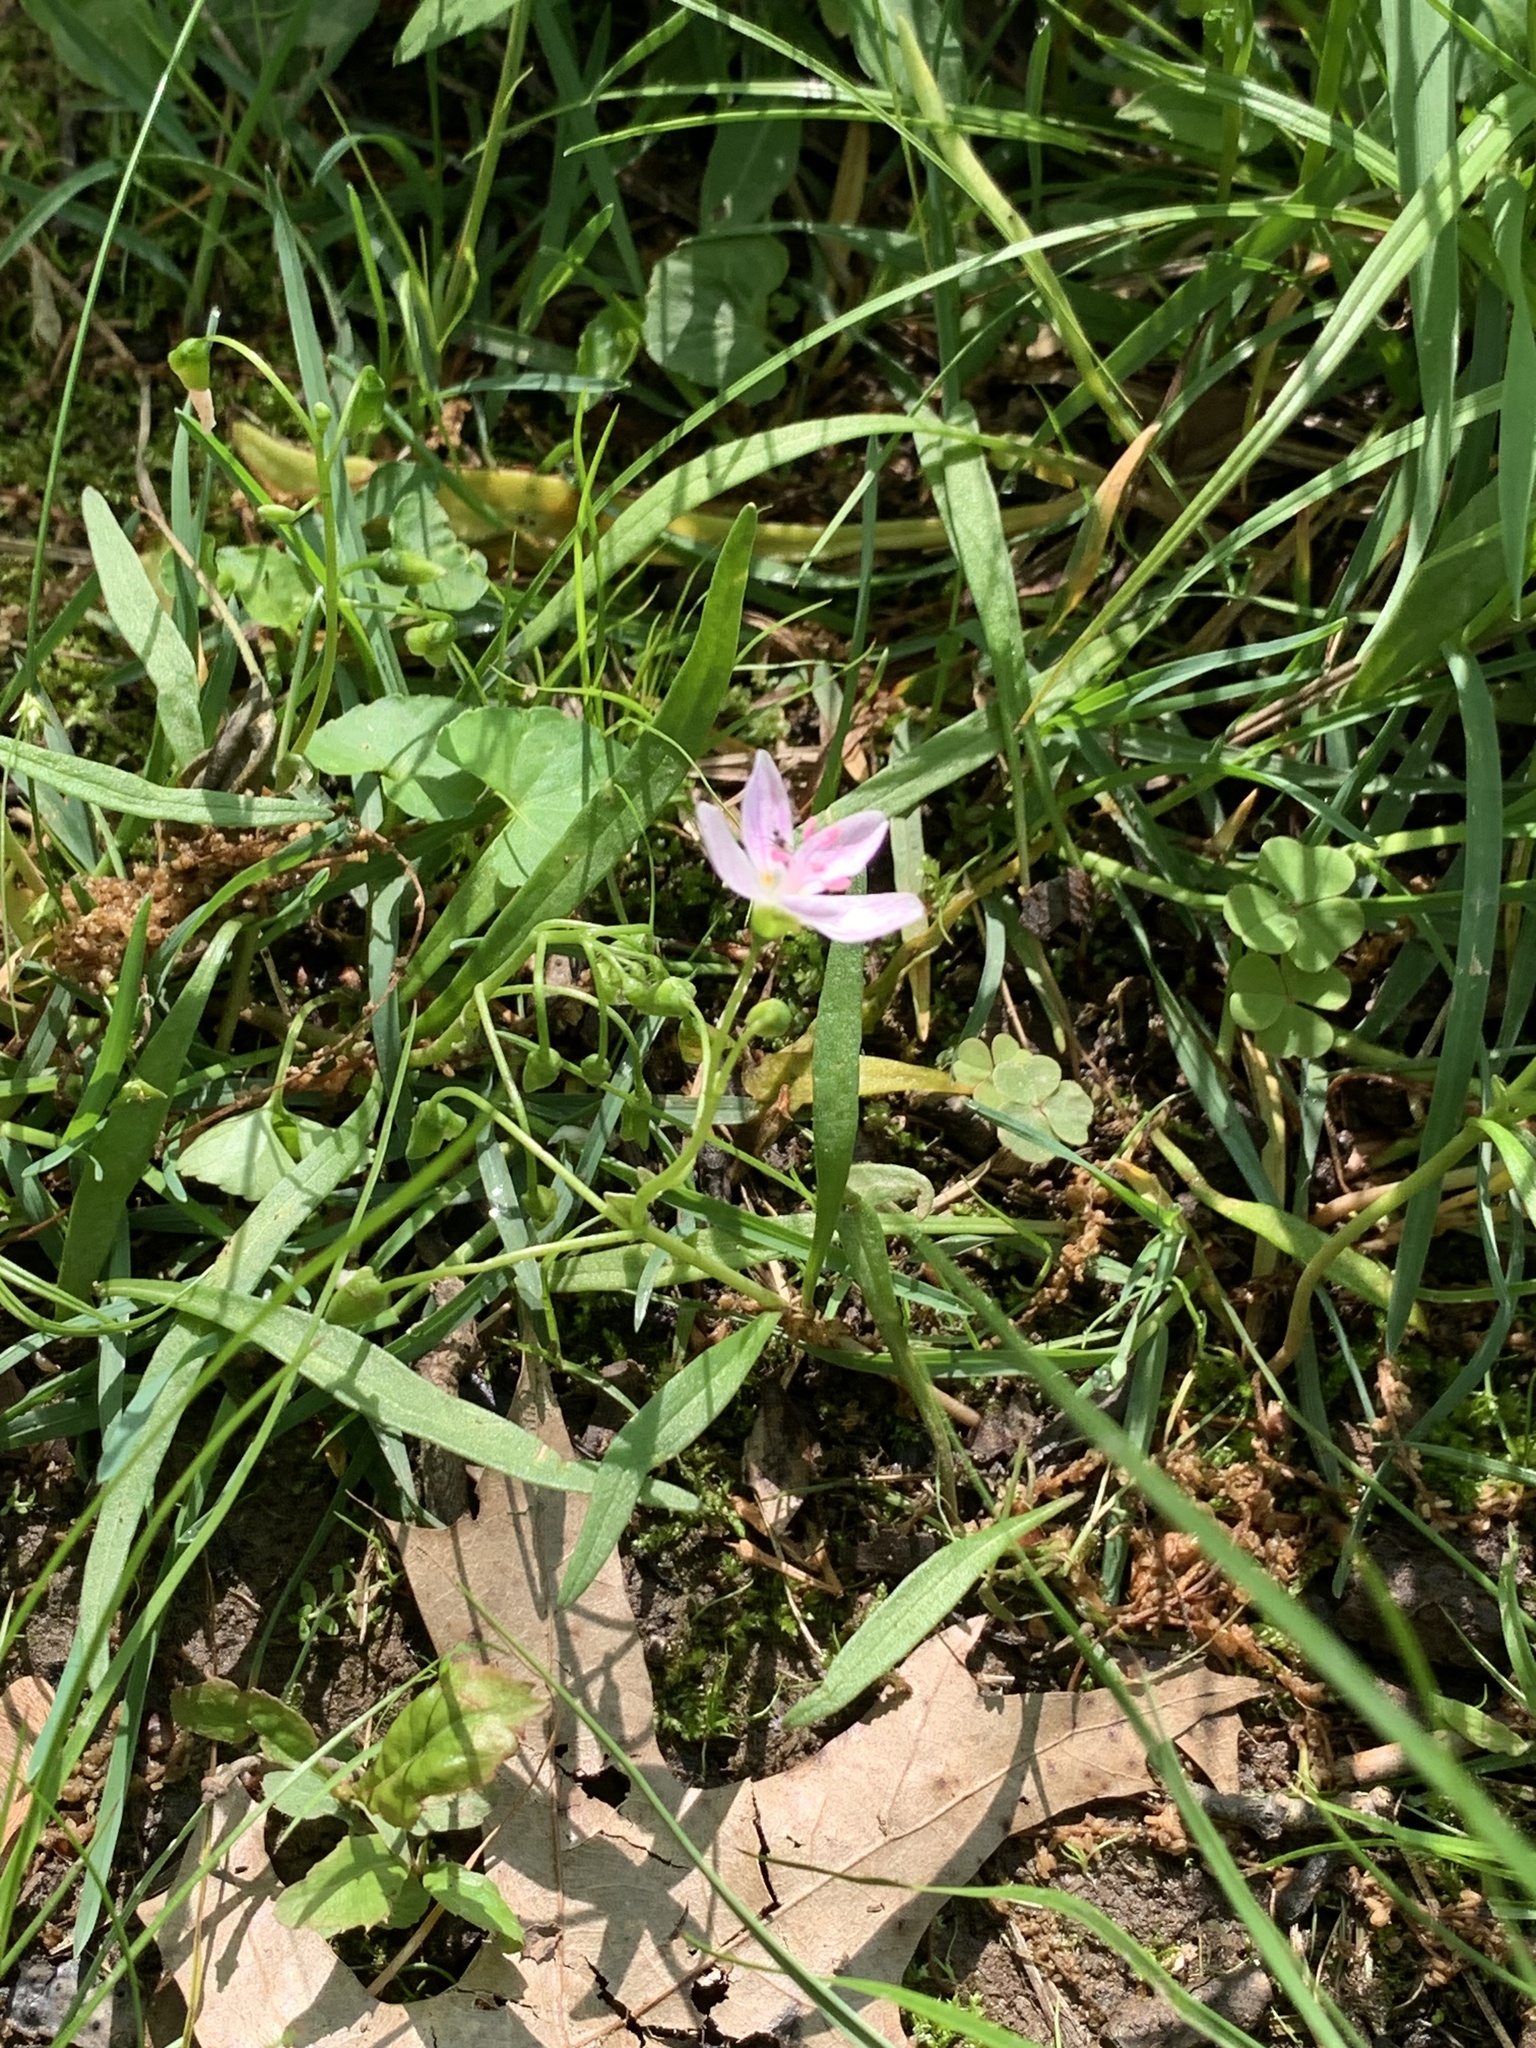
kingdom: Plantae
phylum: Tracheophyta
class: Magnoliopsida
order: Caryophyllales
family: Montiaceae
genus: Claytonia
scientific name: Claytonia virginica
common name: Virginia springbeauty
